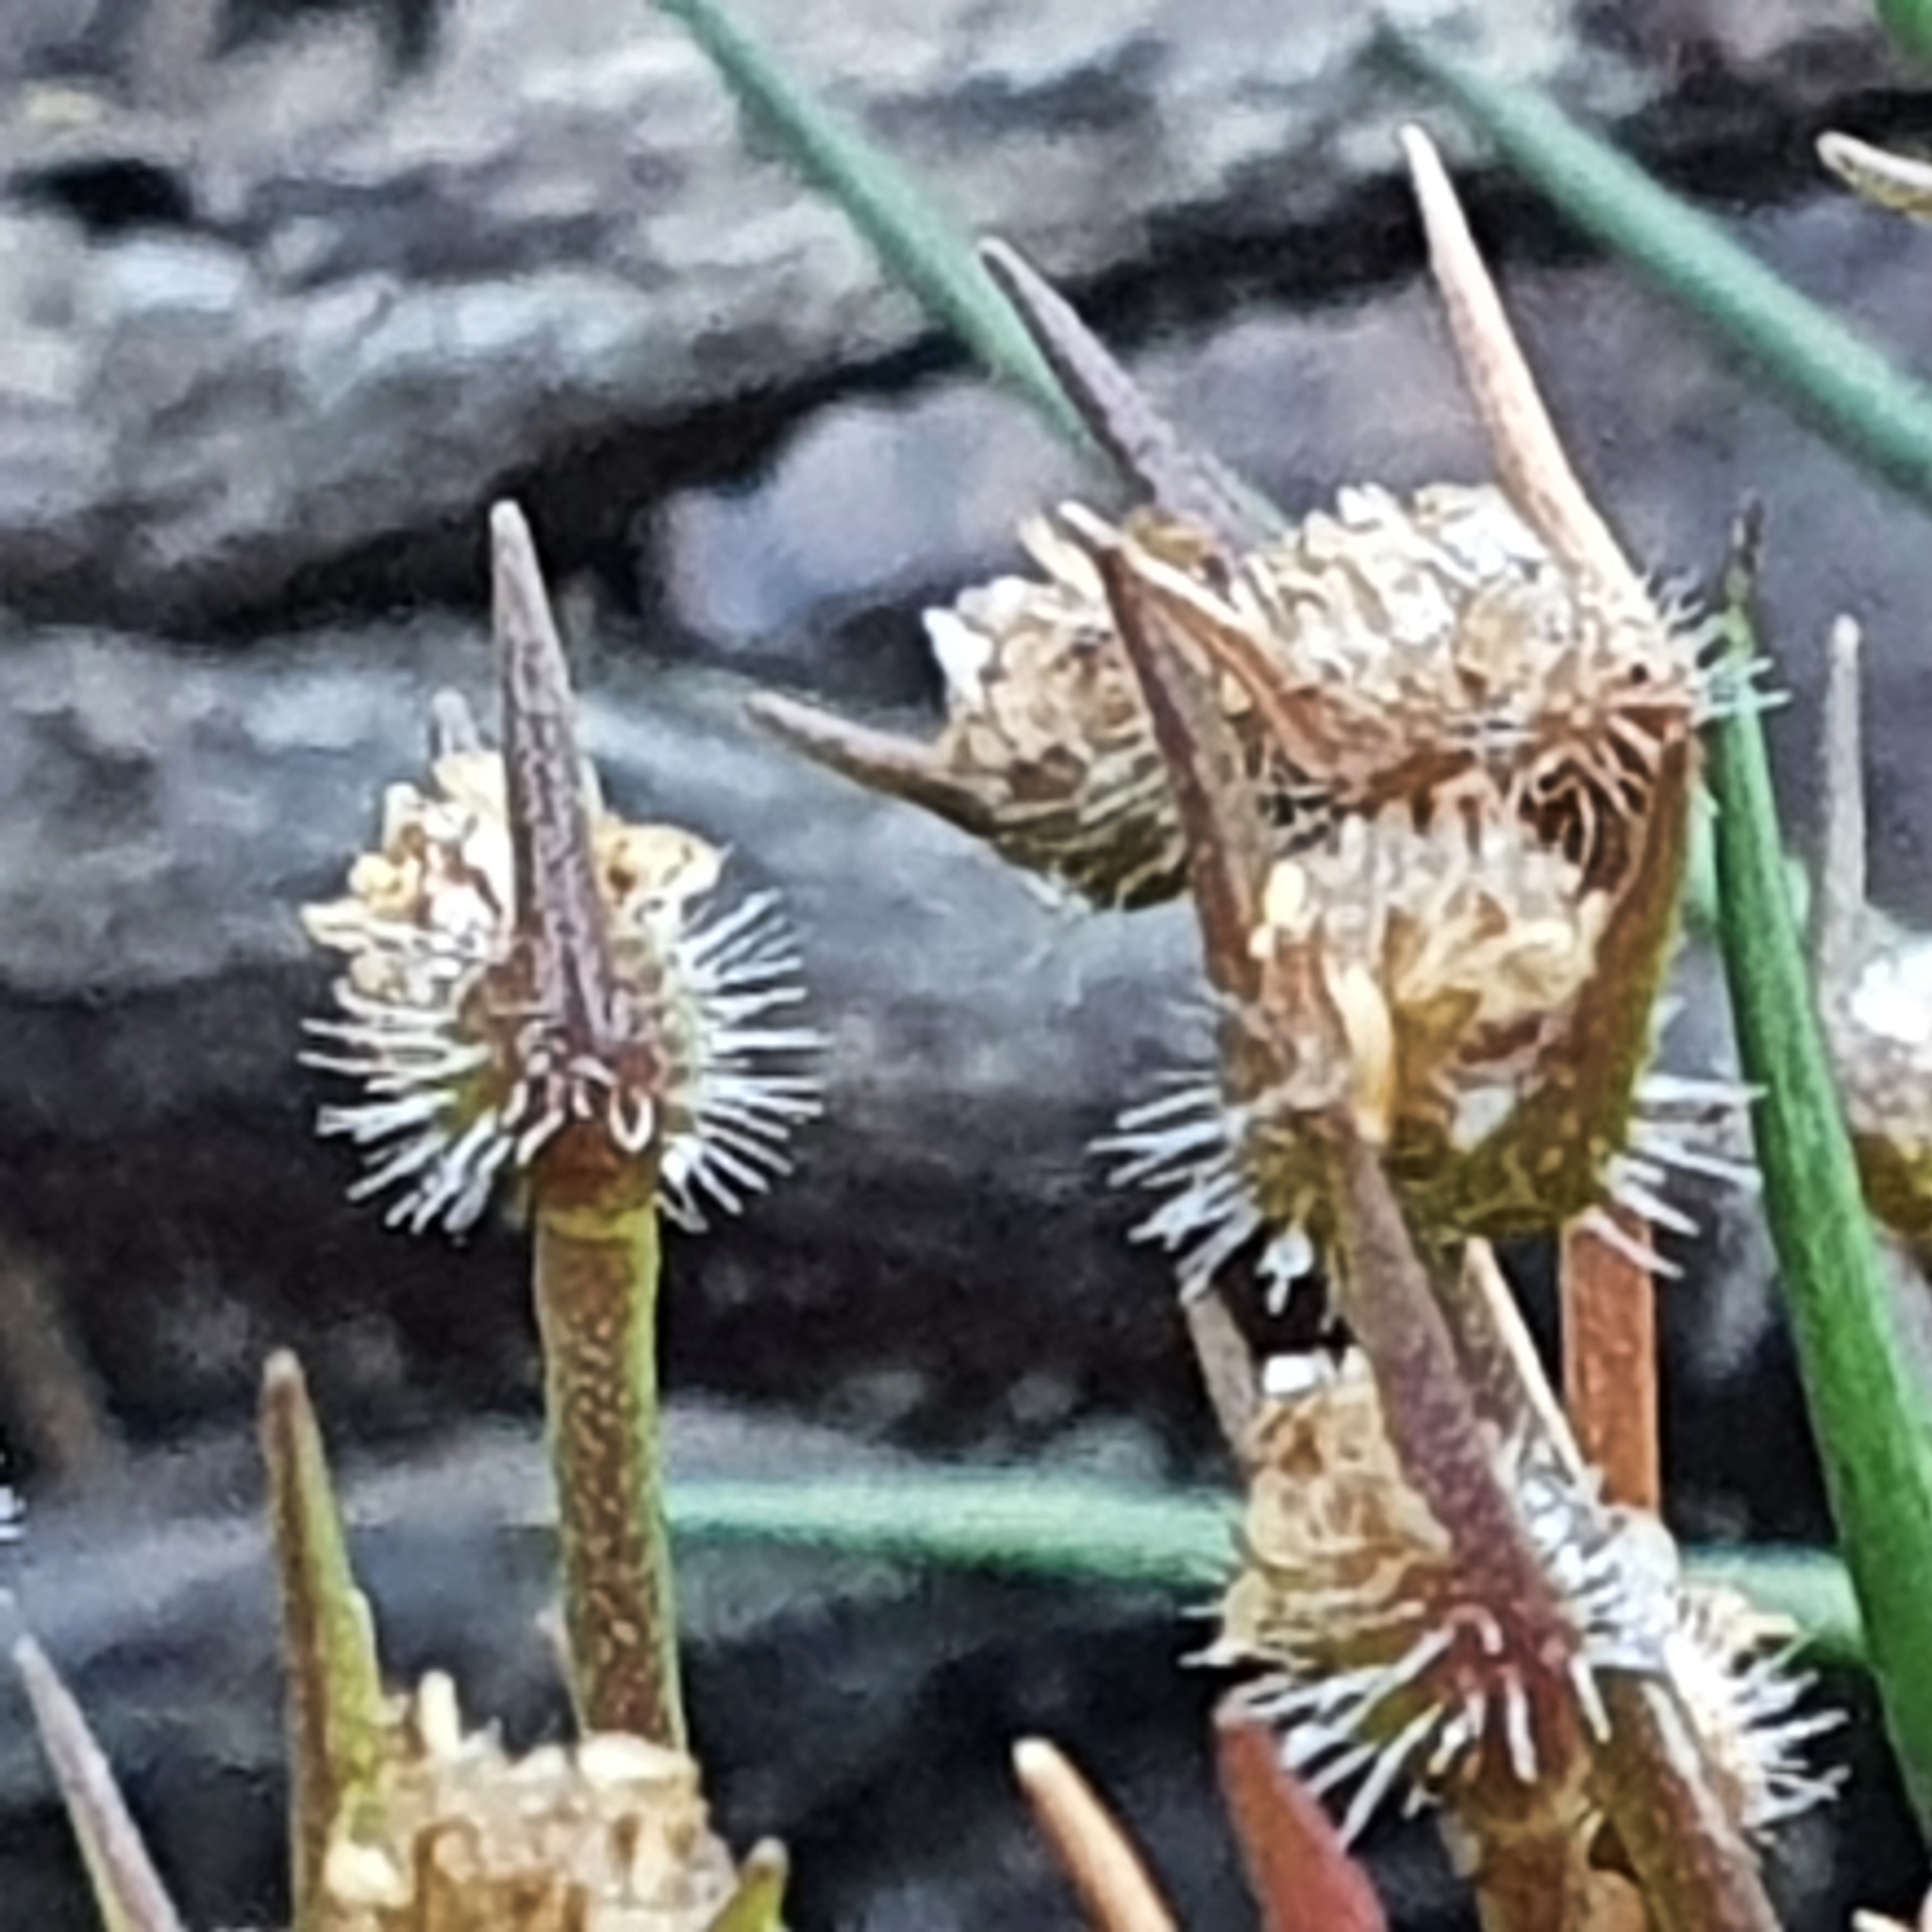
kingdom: Plantae
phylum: Tracheophyta
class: Liliopsida
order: Poales
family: Restionaceae
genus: Centrolepis
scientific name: Centrolepis fascicularis
